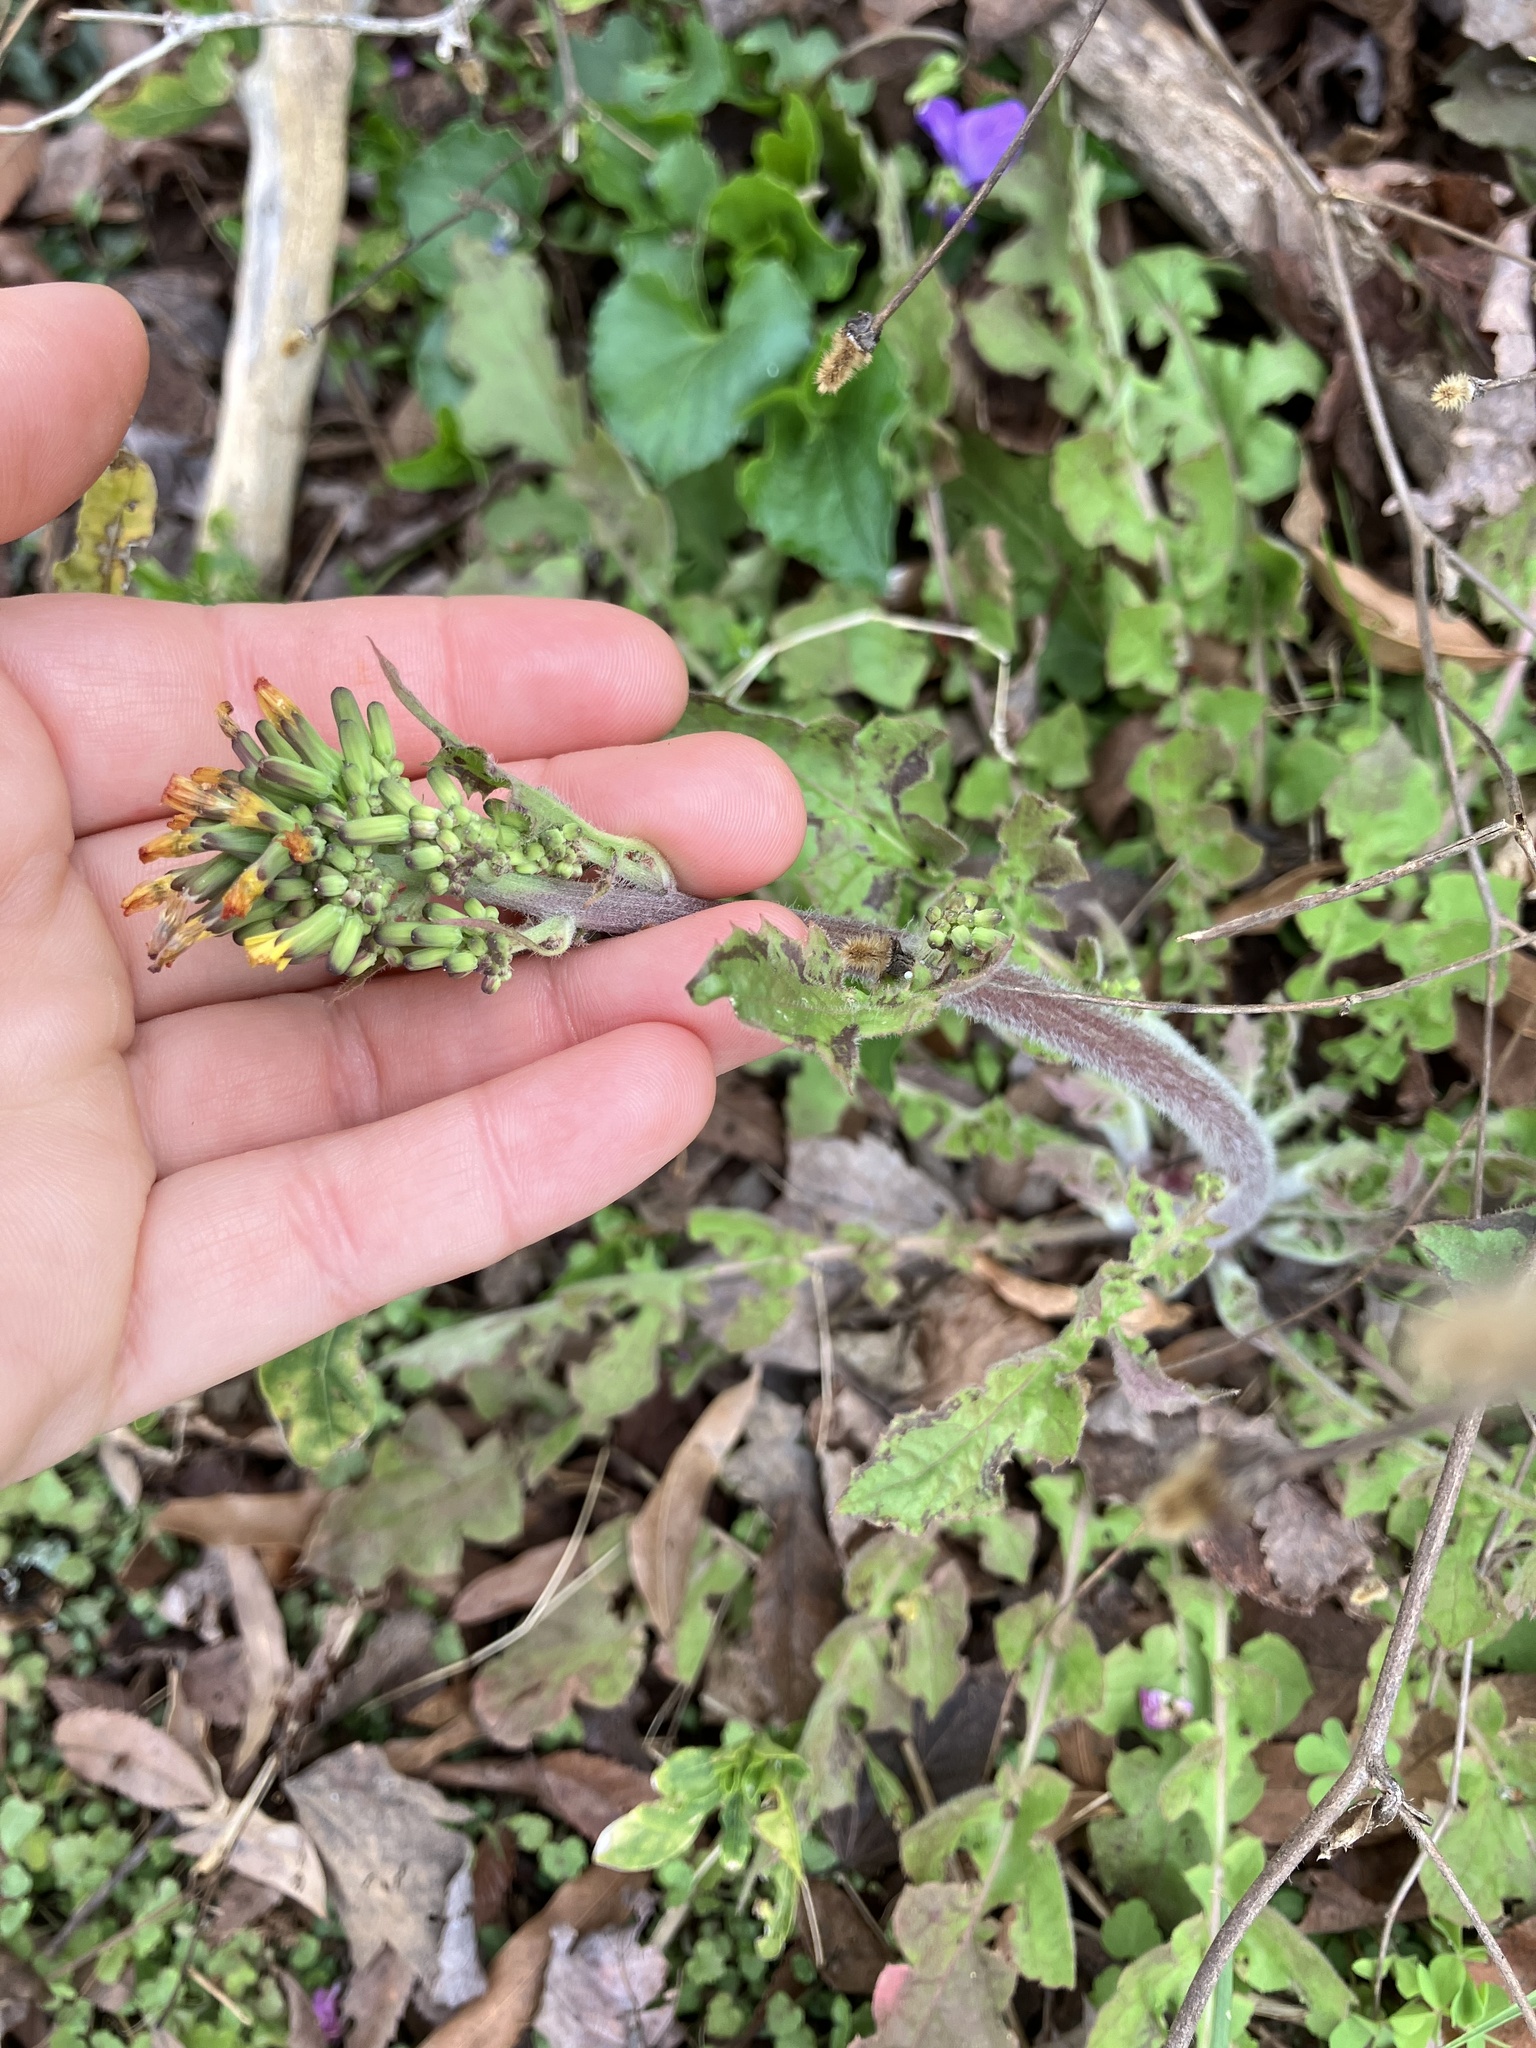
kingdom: Plantae
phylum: Tracheophyta
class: Magnoliopsida
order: Asterales
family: Asteraceae
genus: Youngia
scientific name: Youngia japonica
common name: Oriental false hawksbeard
